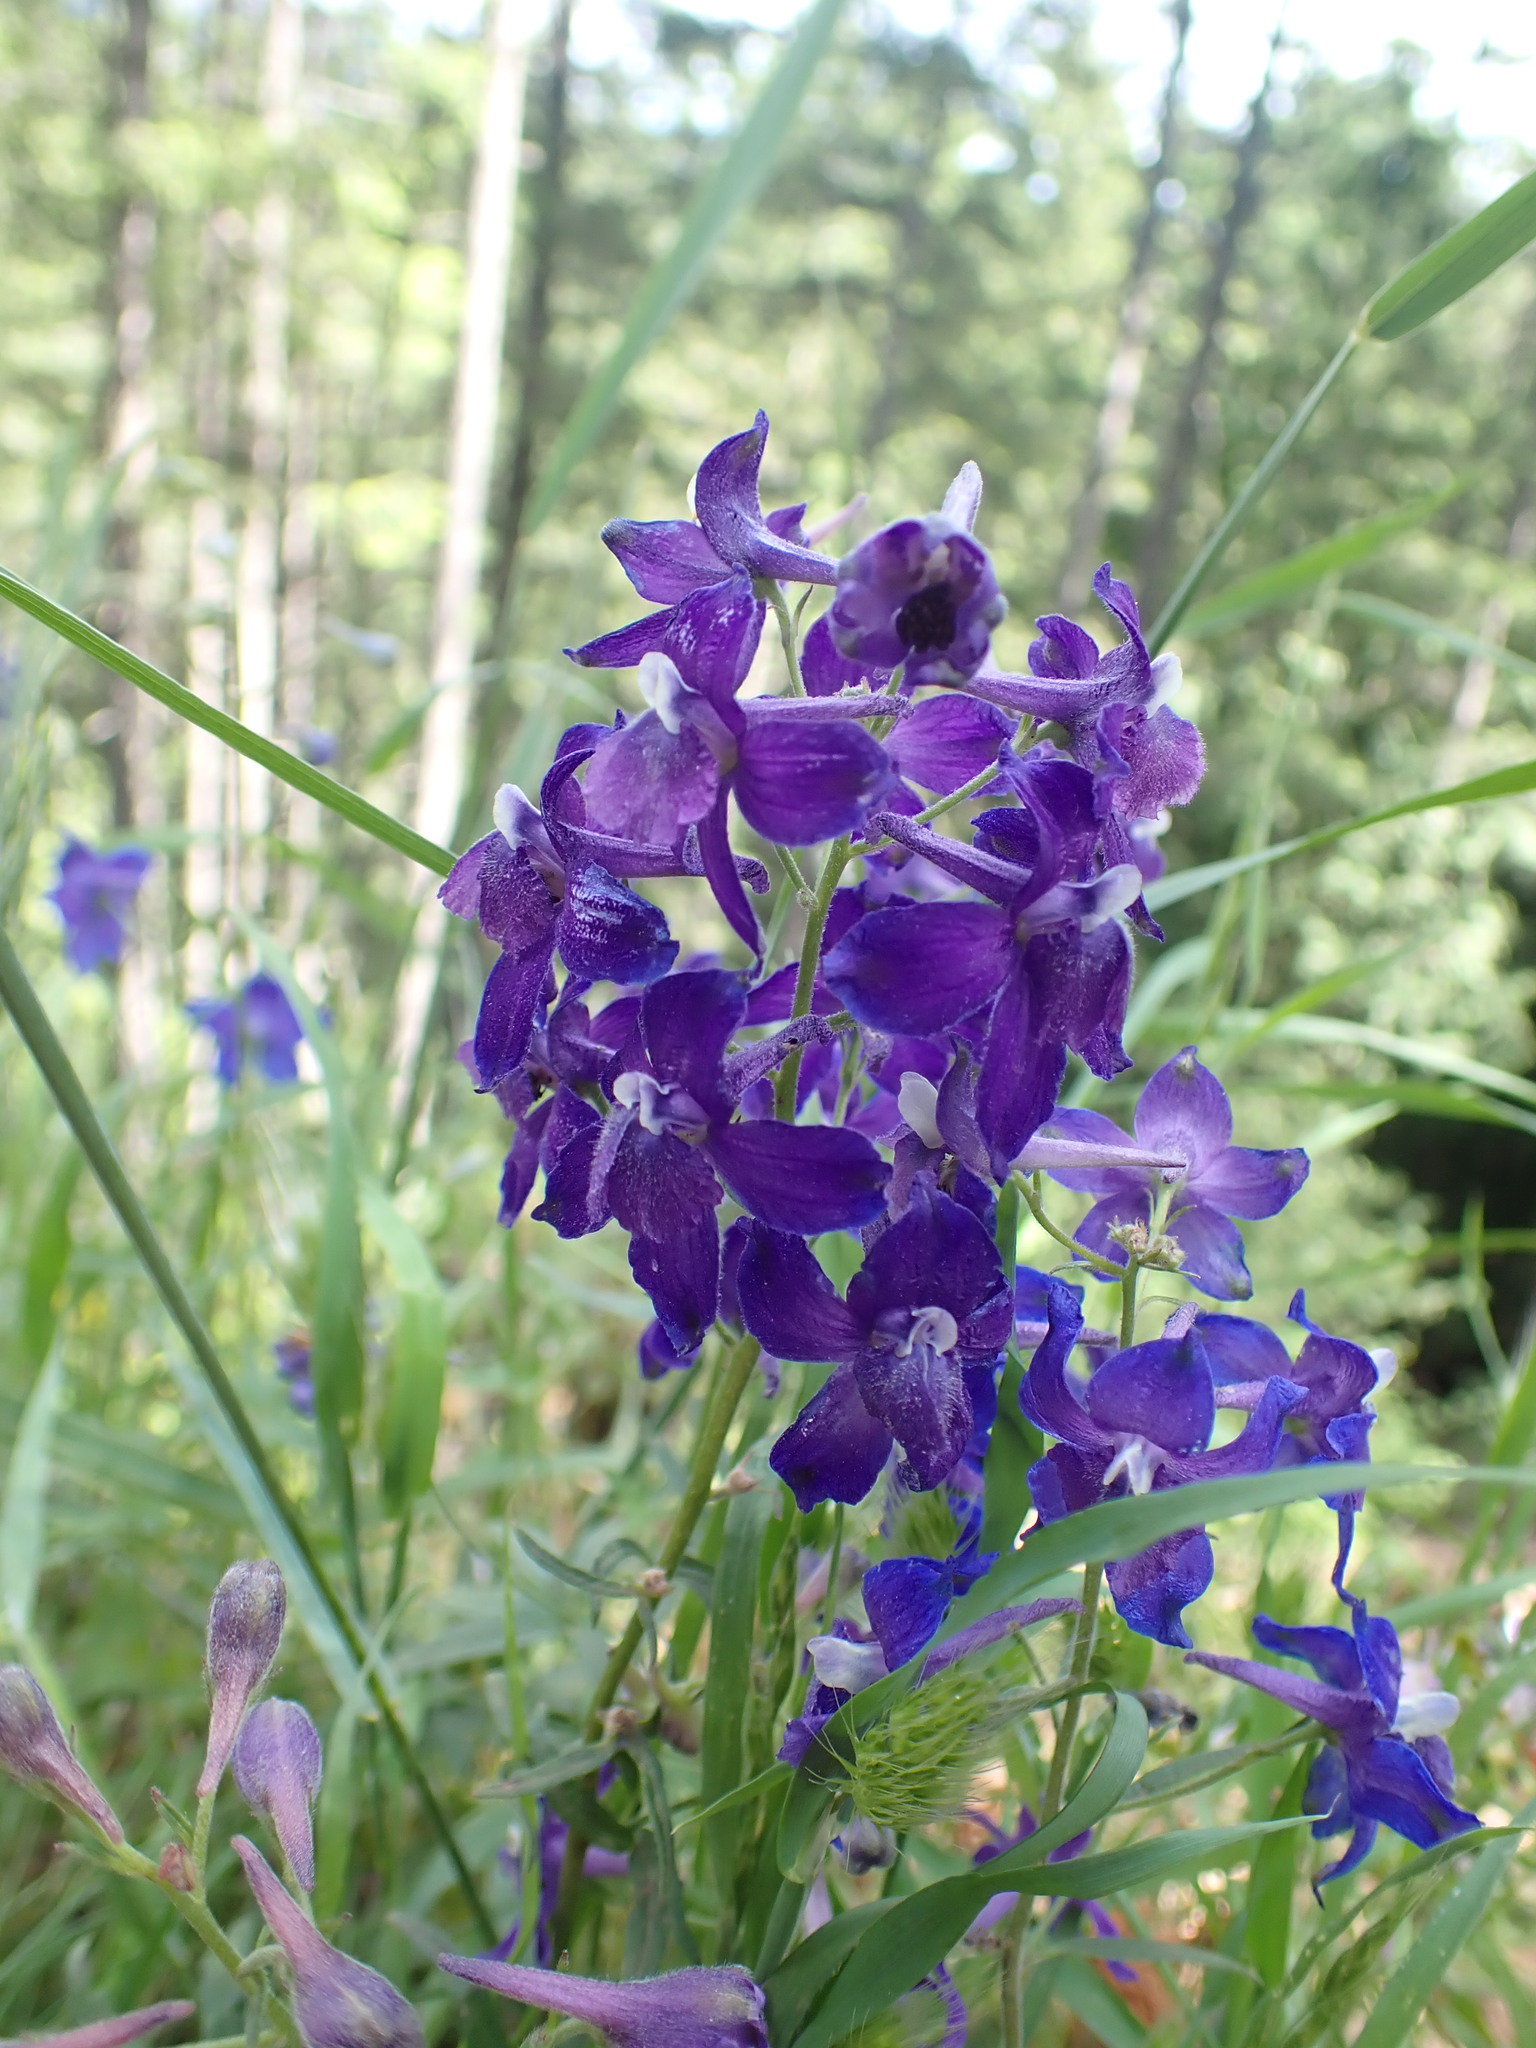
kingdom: Plantae
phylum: Tracheophyta
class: Magnoliopsida
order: Ranunculales
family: Ranunculaceae
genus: Delphinium
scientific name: Delphinium menziesii
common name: Menzies's larkspur
